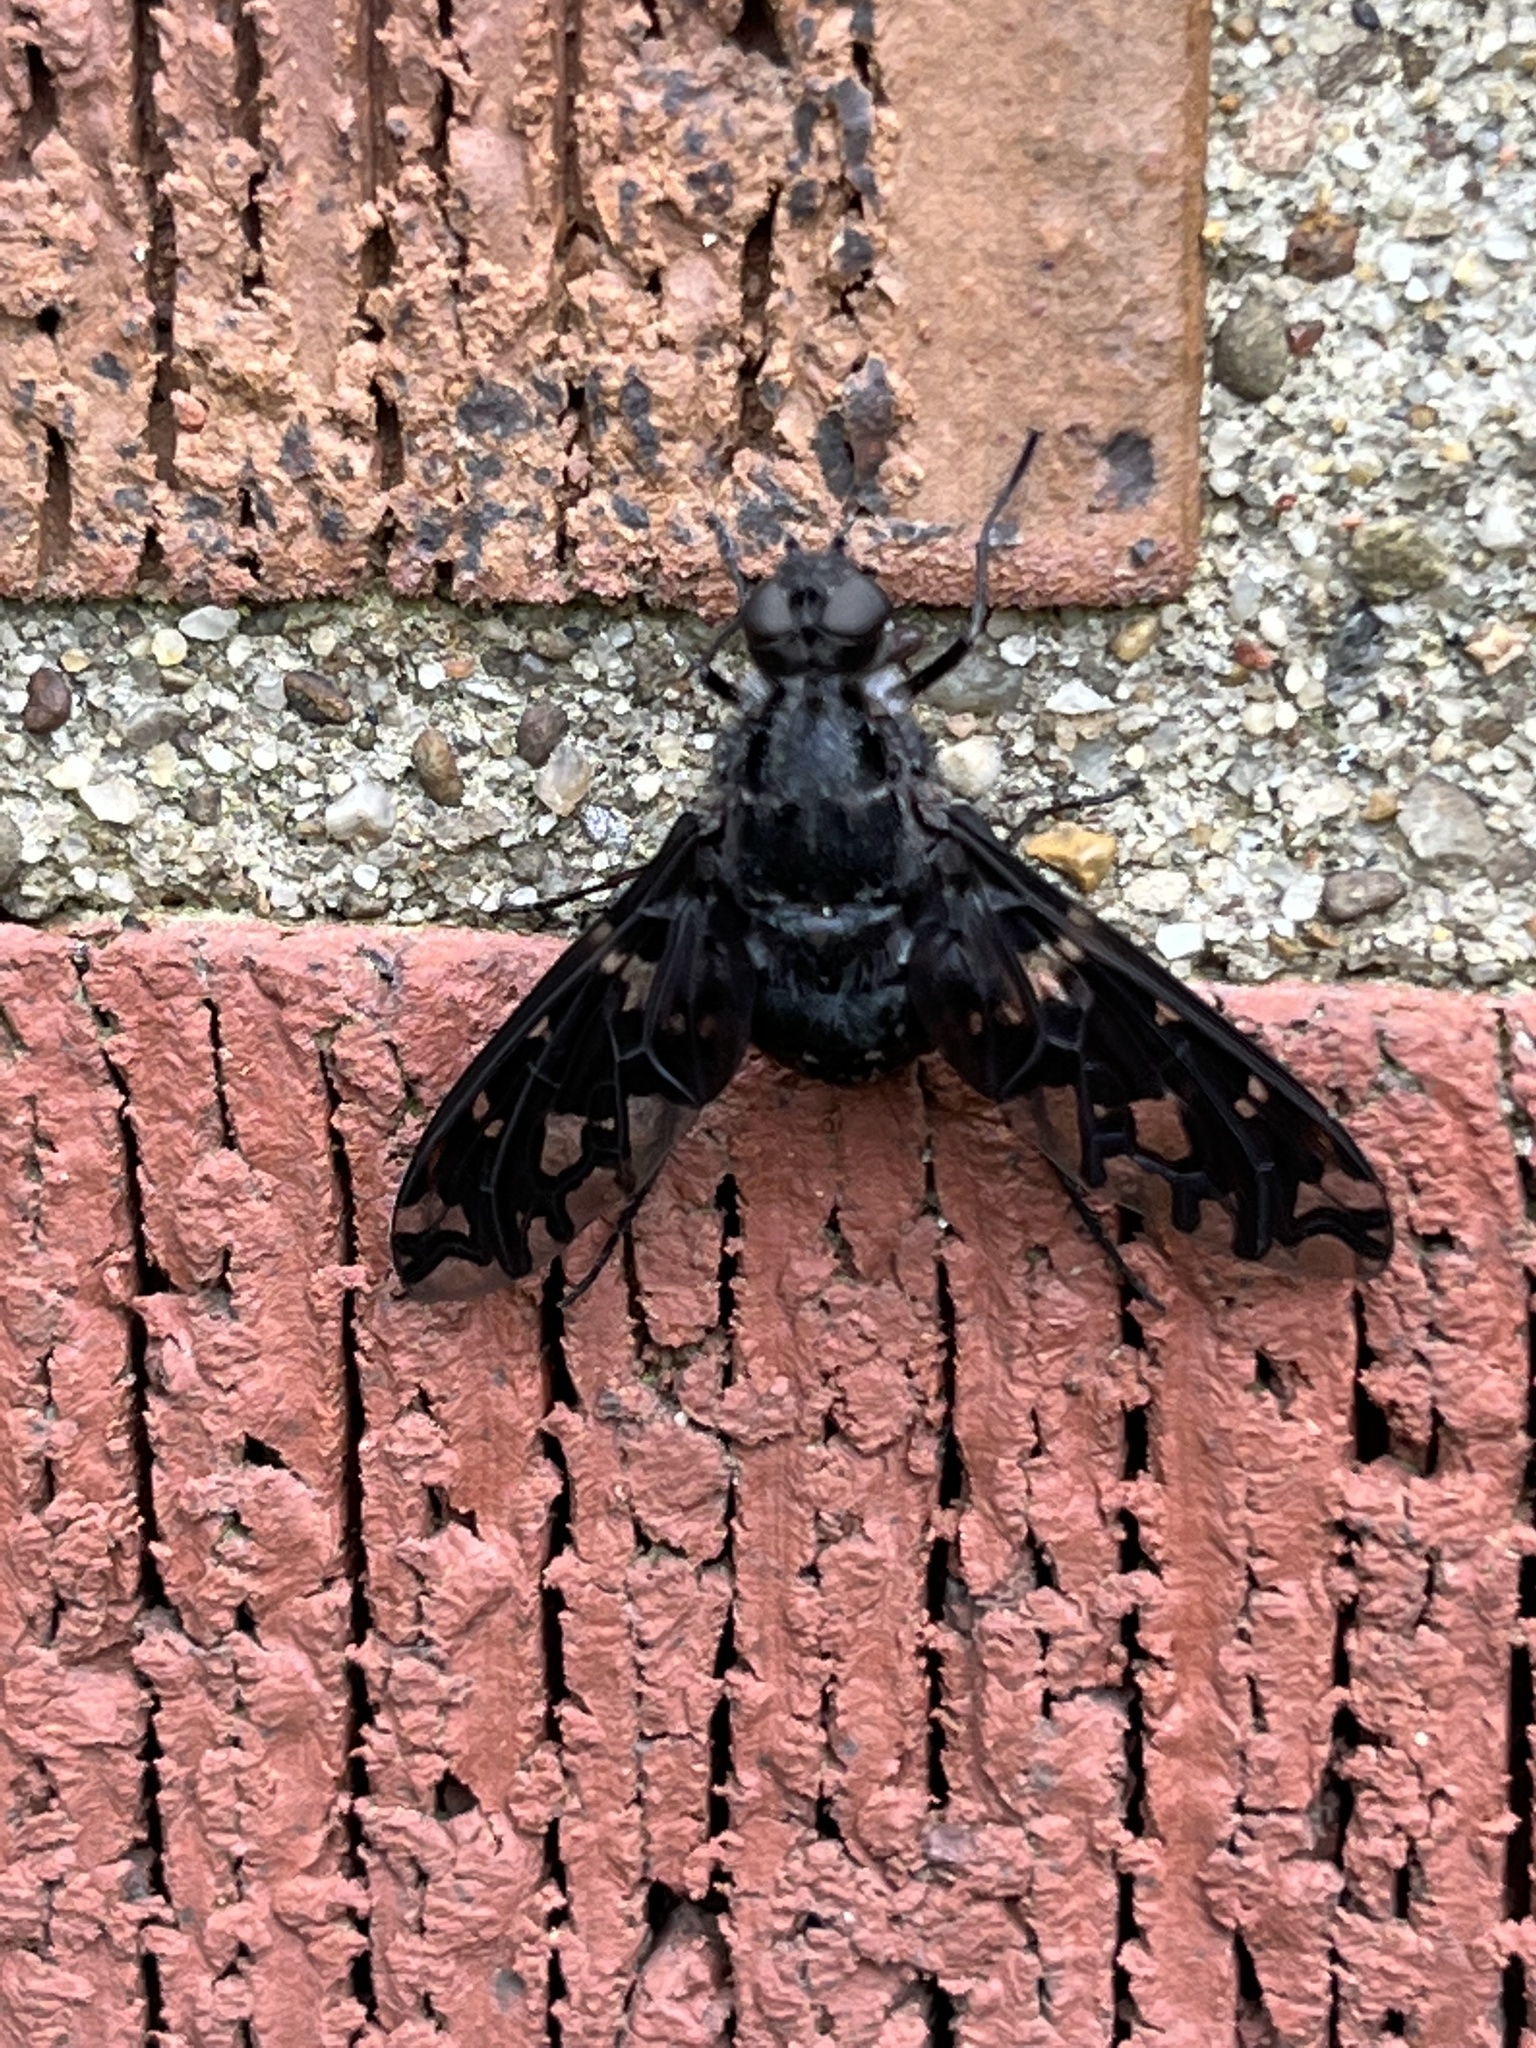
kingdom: Animalia
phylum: Arthropoda
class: Insecta
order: Diptera
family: Bombyliidae
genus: Xenox
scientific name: Xenox tigrinus
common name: Tiger bee fly
